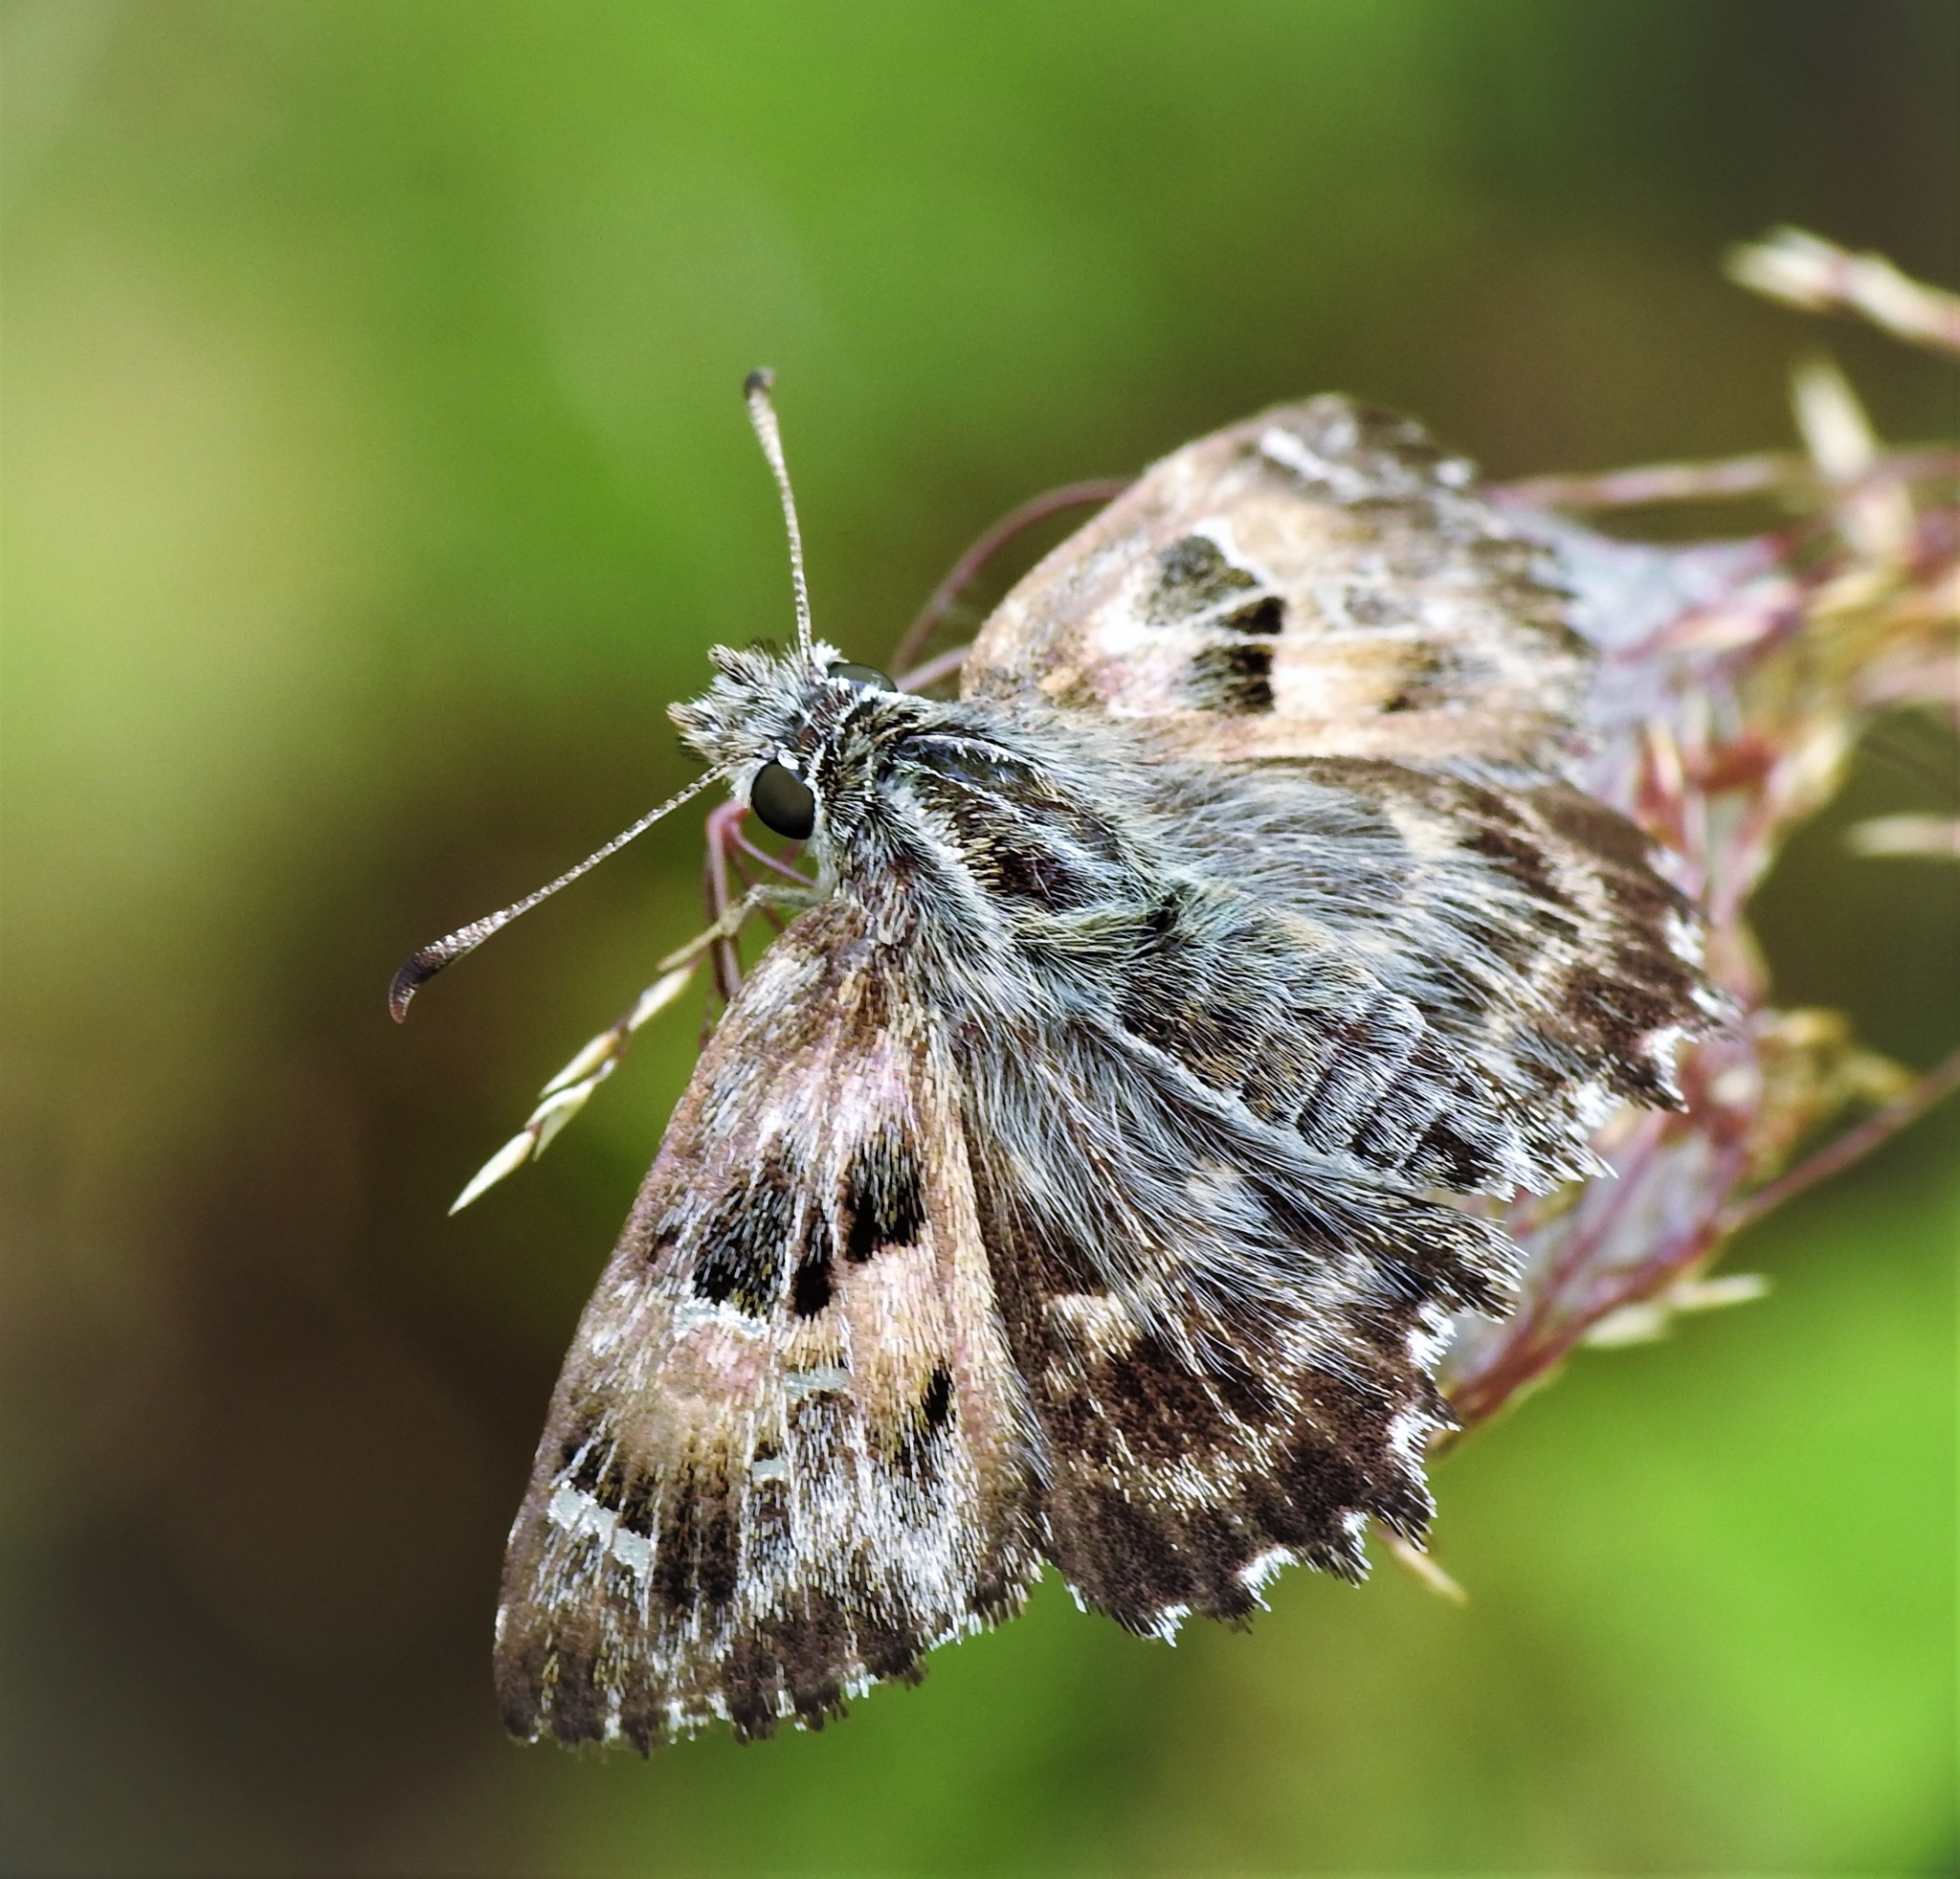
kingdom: Animalia
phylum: Arthropoda
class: Insecta
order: Lepidoptera
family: Hesperiidae
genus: Carcharodus
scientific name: Carcharodus alceae
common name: Mallow skipper
